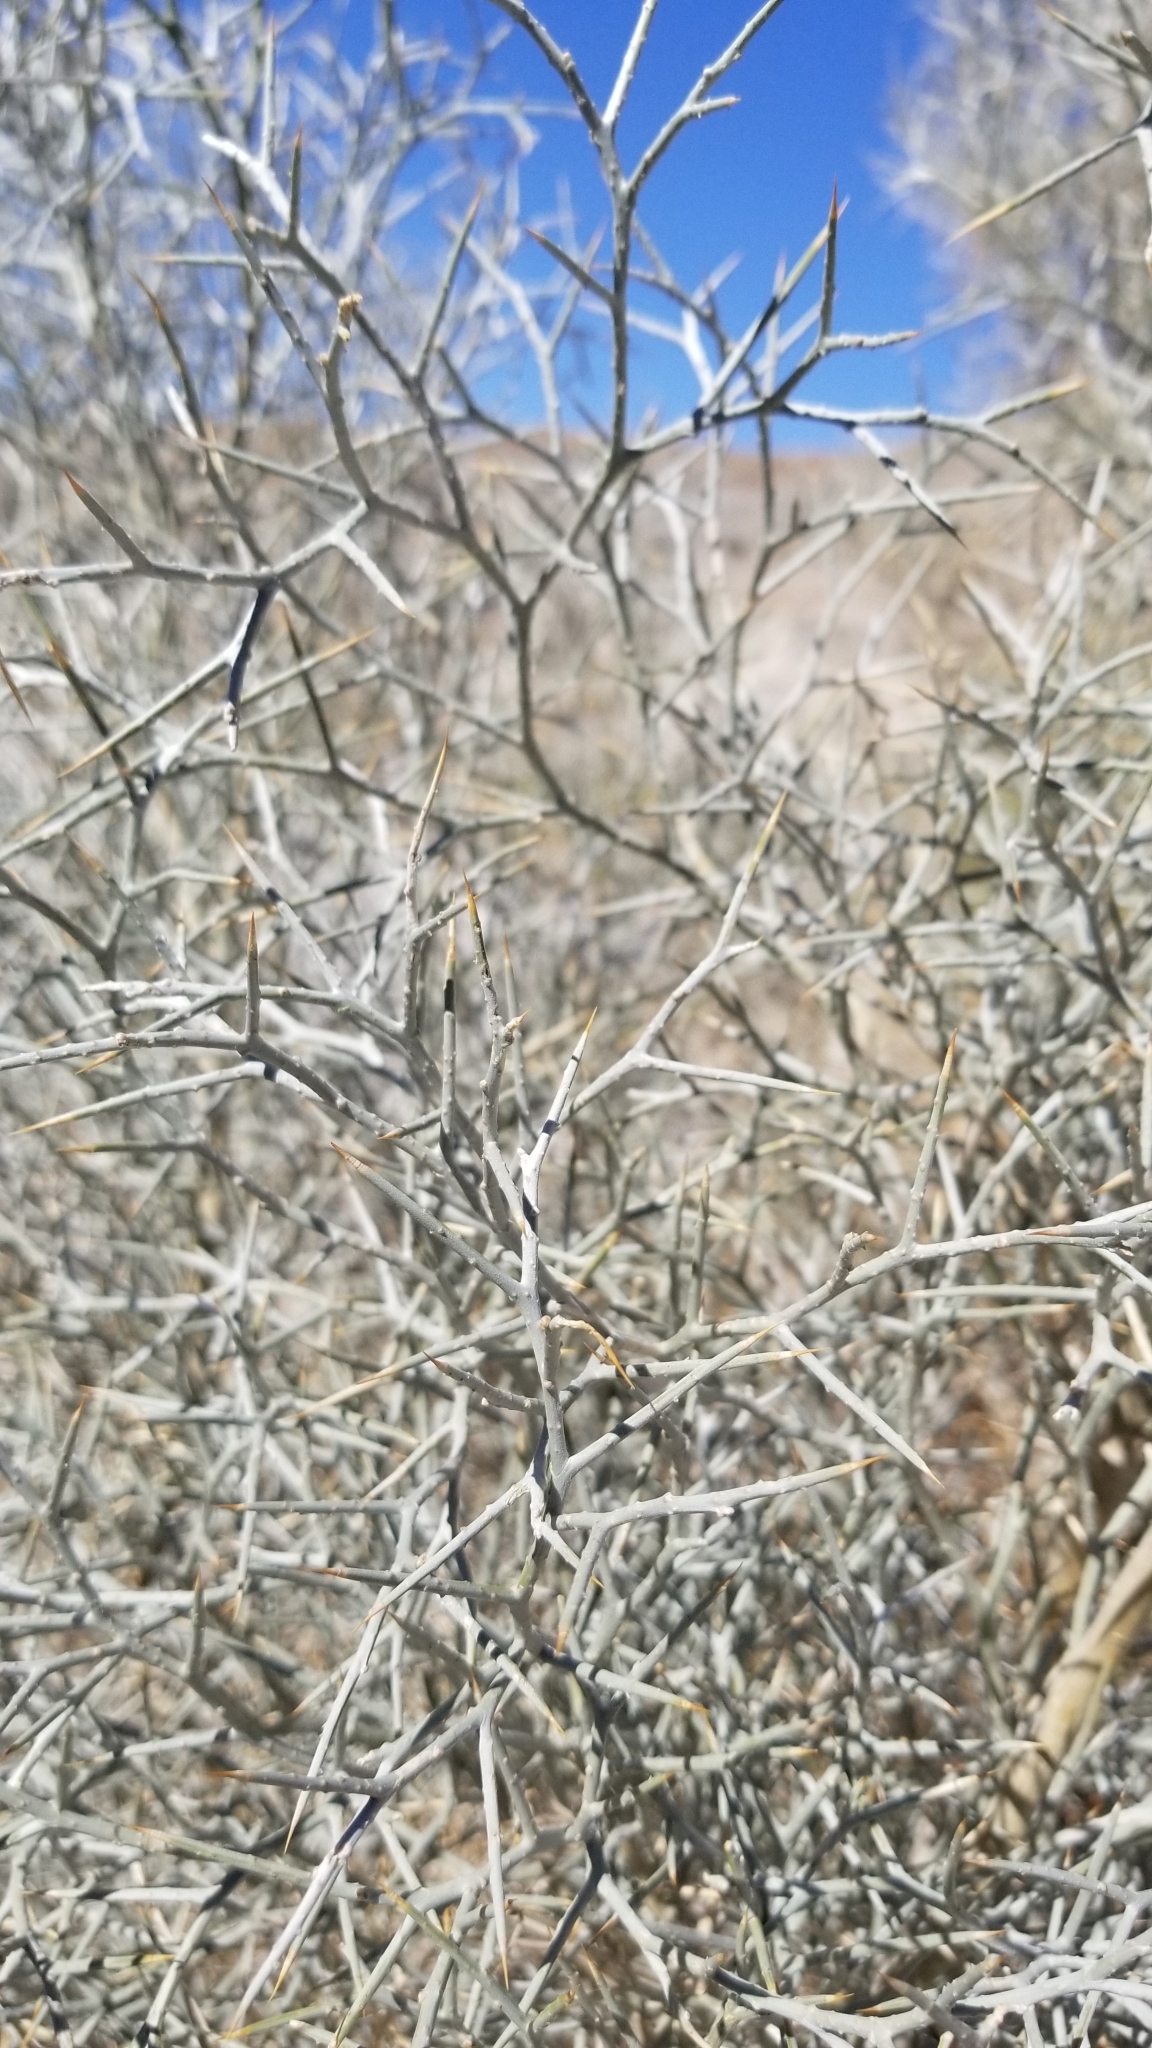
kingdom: Plantae
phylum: Tracheophyta
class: Magnoliopsida
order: Fabales
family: Fabaceae
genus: Psorothamnus
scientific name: Psorothamnus spinosus
